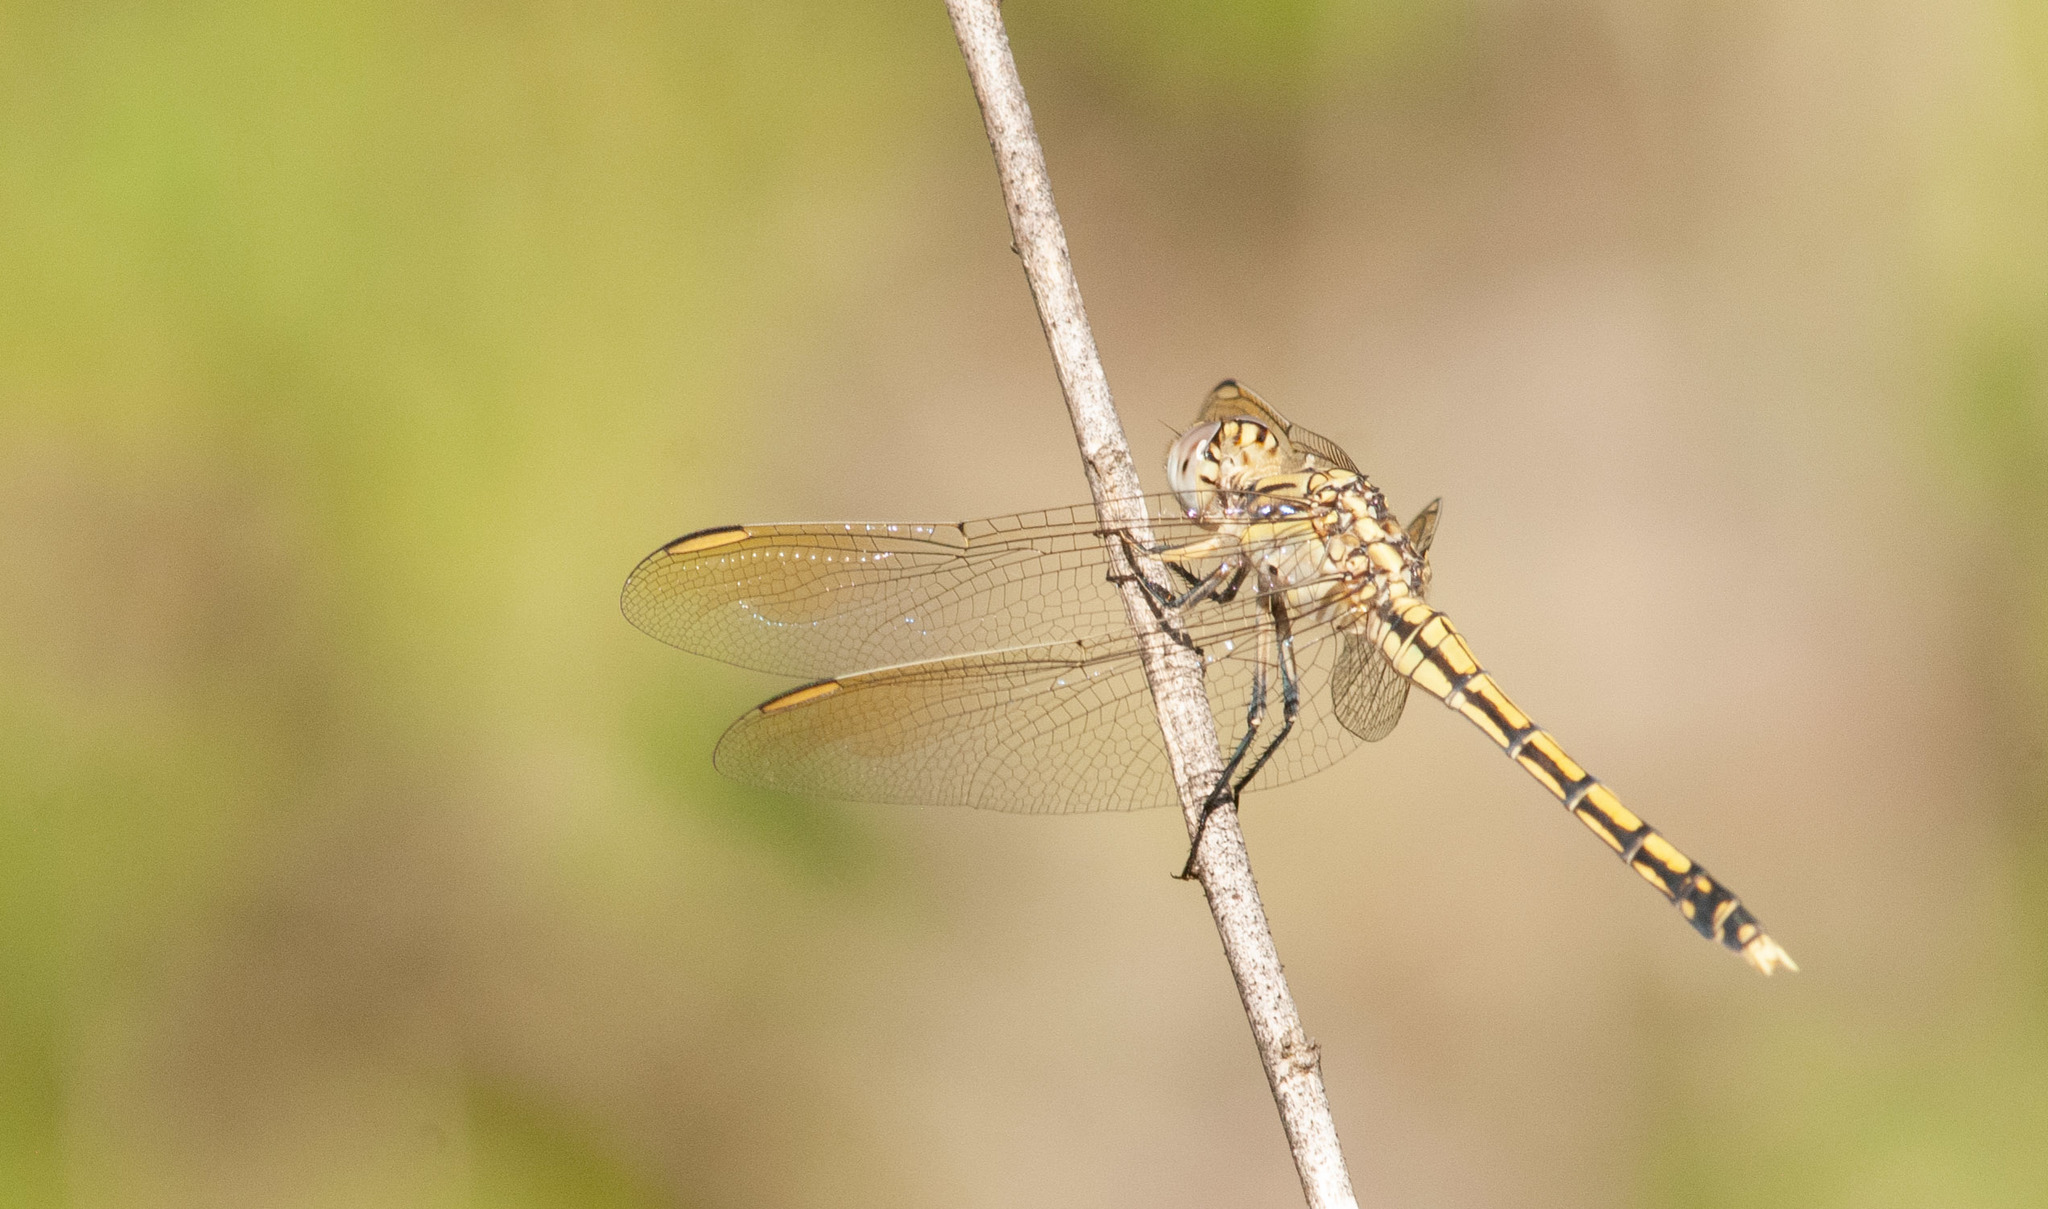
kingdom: Animalia
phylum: Arthropoda
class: Insecta
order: Odonata
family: Libellulidae
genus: Orthetrum
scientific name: Orthetrum caledonicum
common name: Blue skimmer
